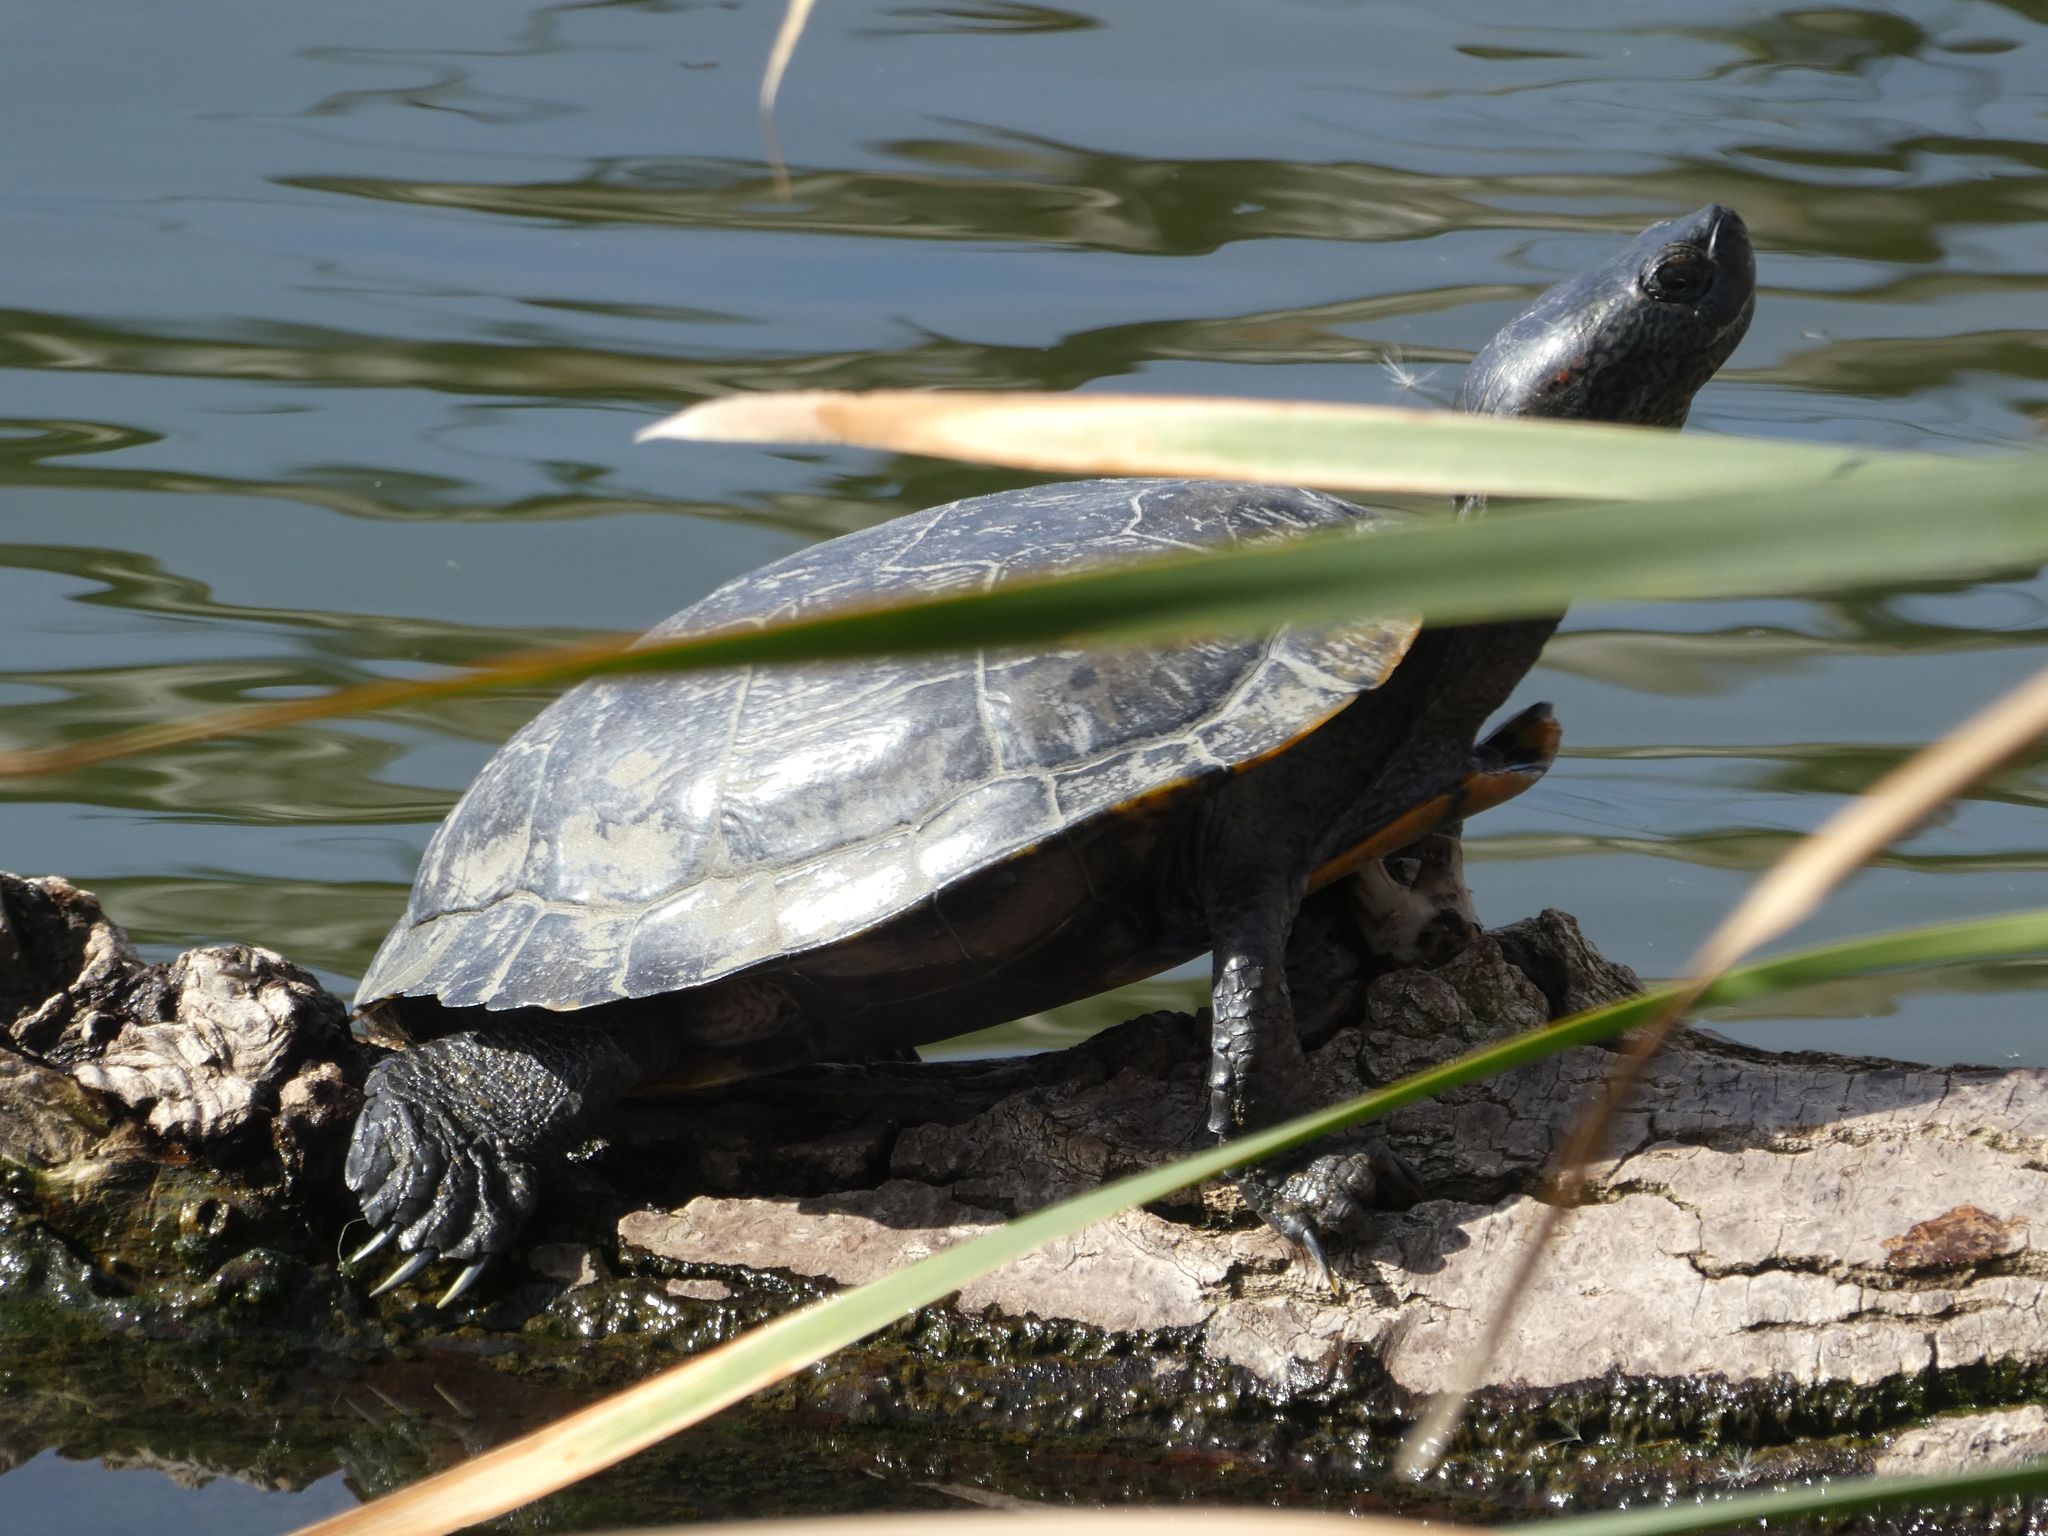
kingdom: Animalia
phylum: Chordata
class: Testudines
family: Emydidae
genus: Trachemys
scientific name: Trachemys scripta
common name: Slider
